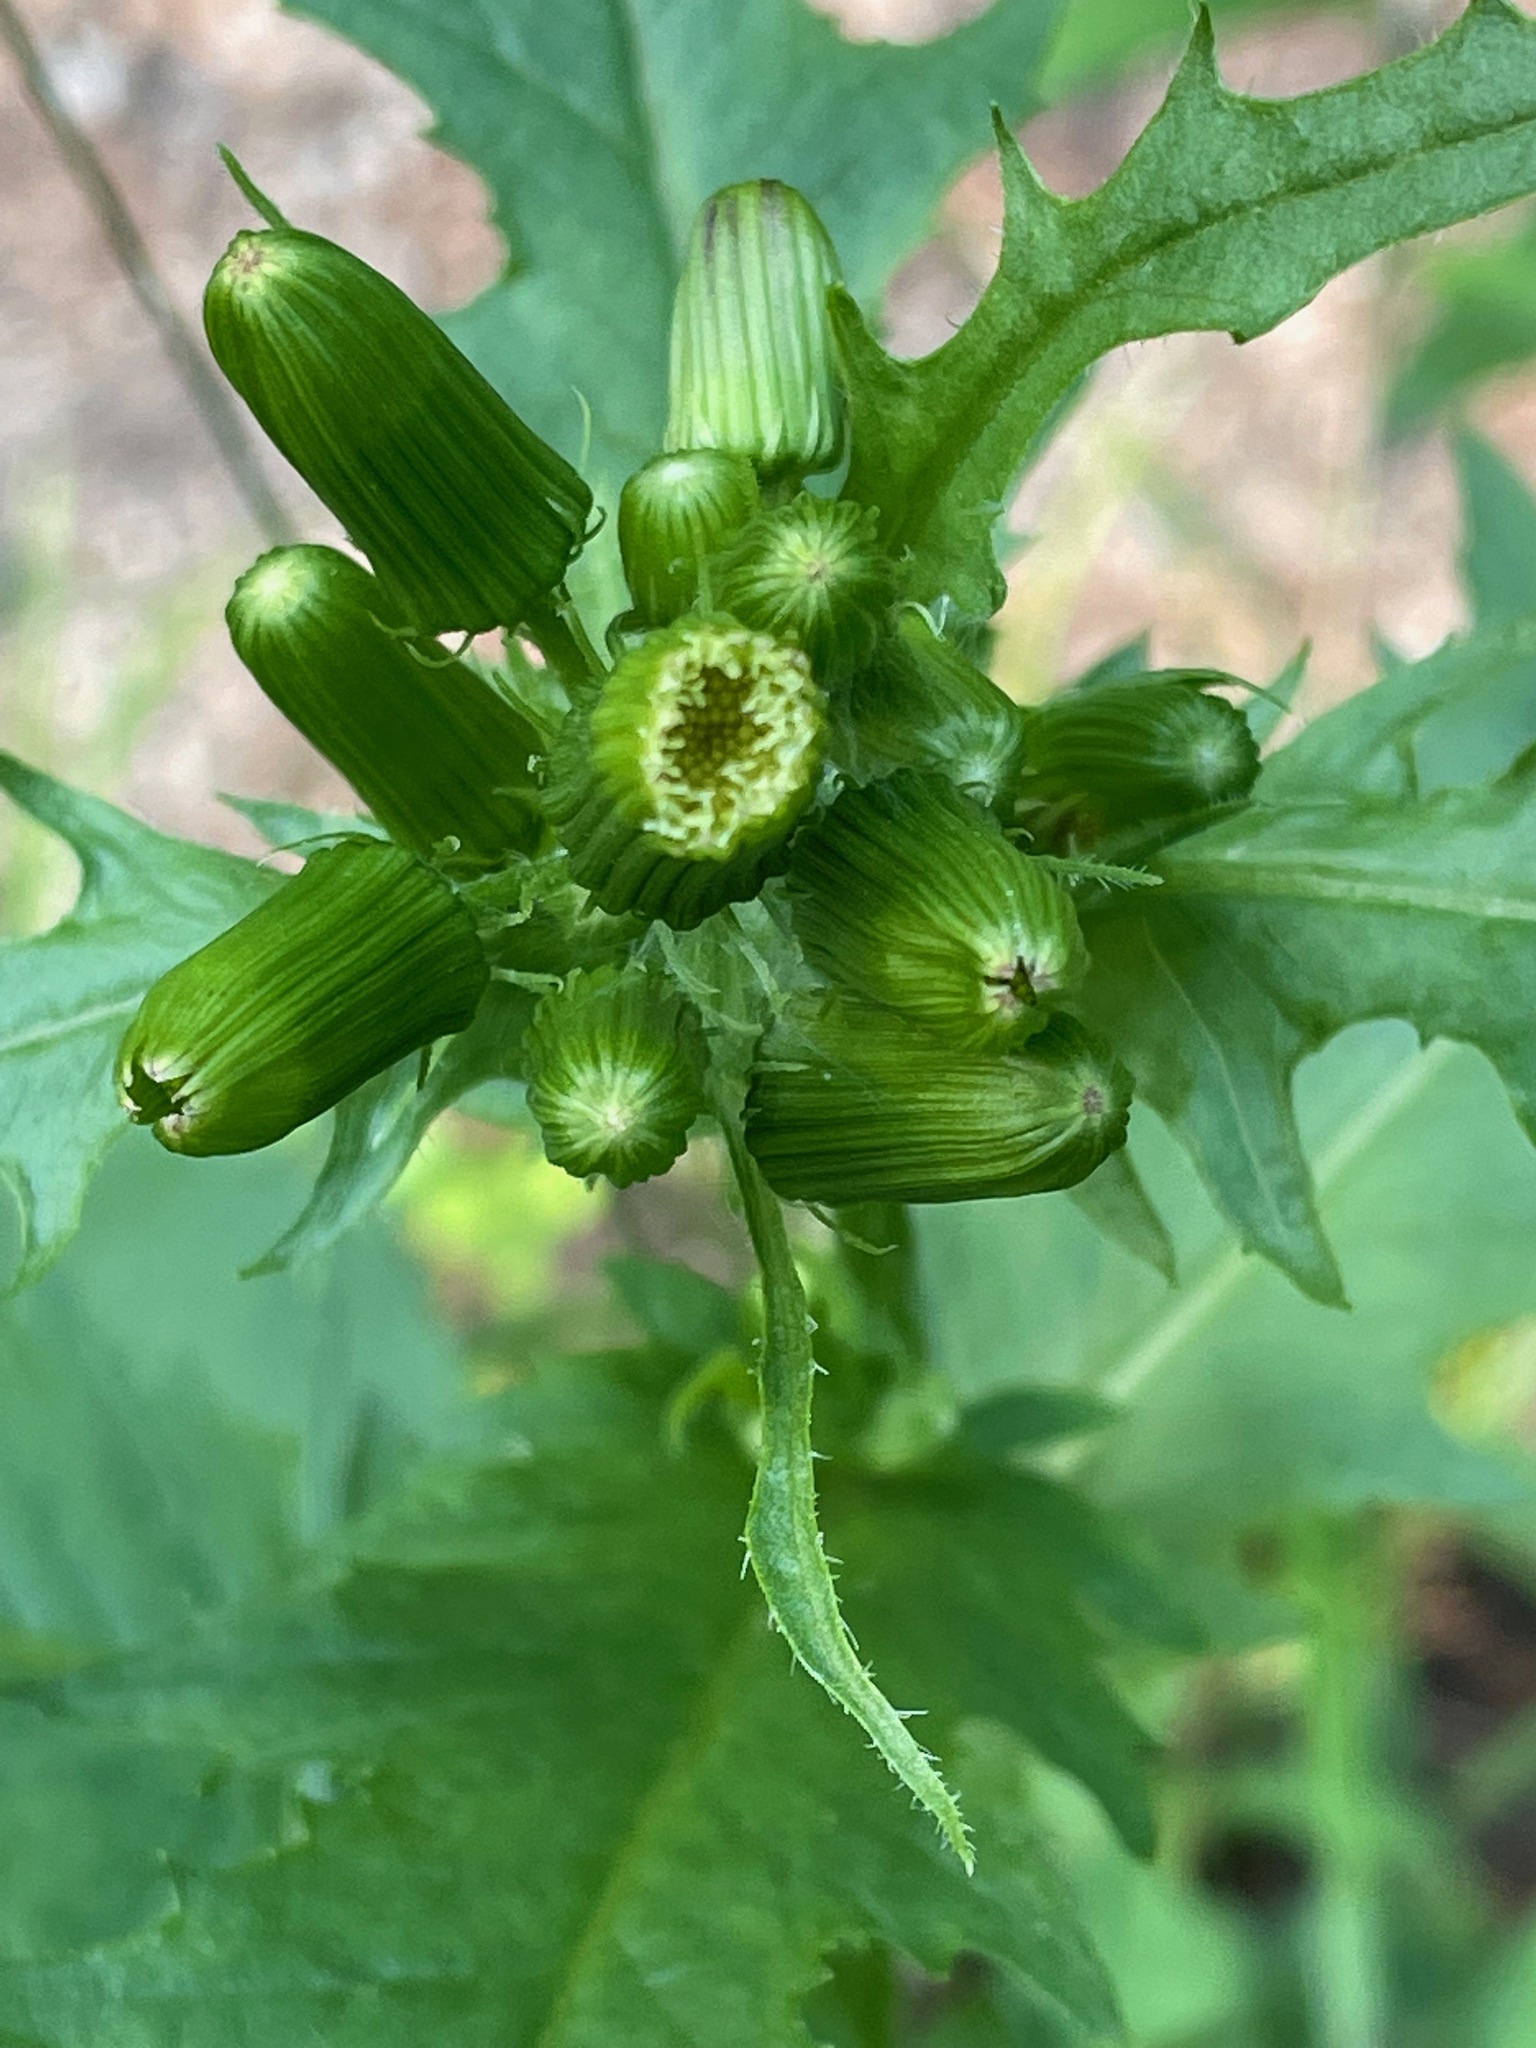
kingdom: Plantae
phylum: Tracheophyta
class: Magnoliopsida
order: Asterales
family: Asteraceae
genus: Erechtites
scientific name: Erechtites hieraciifolius
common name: American burnweed
